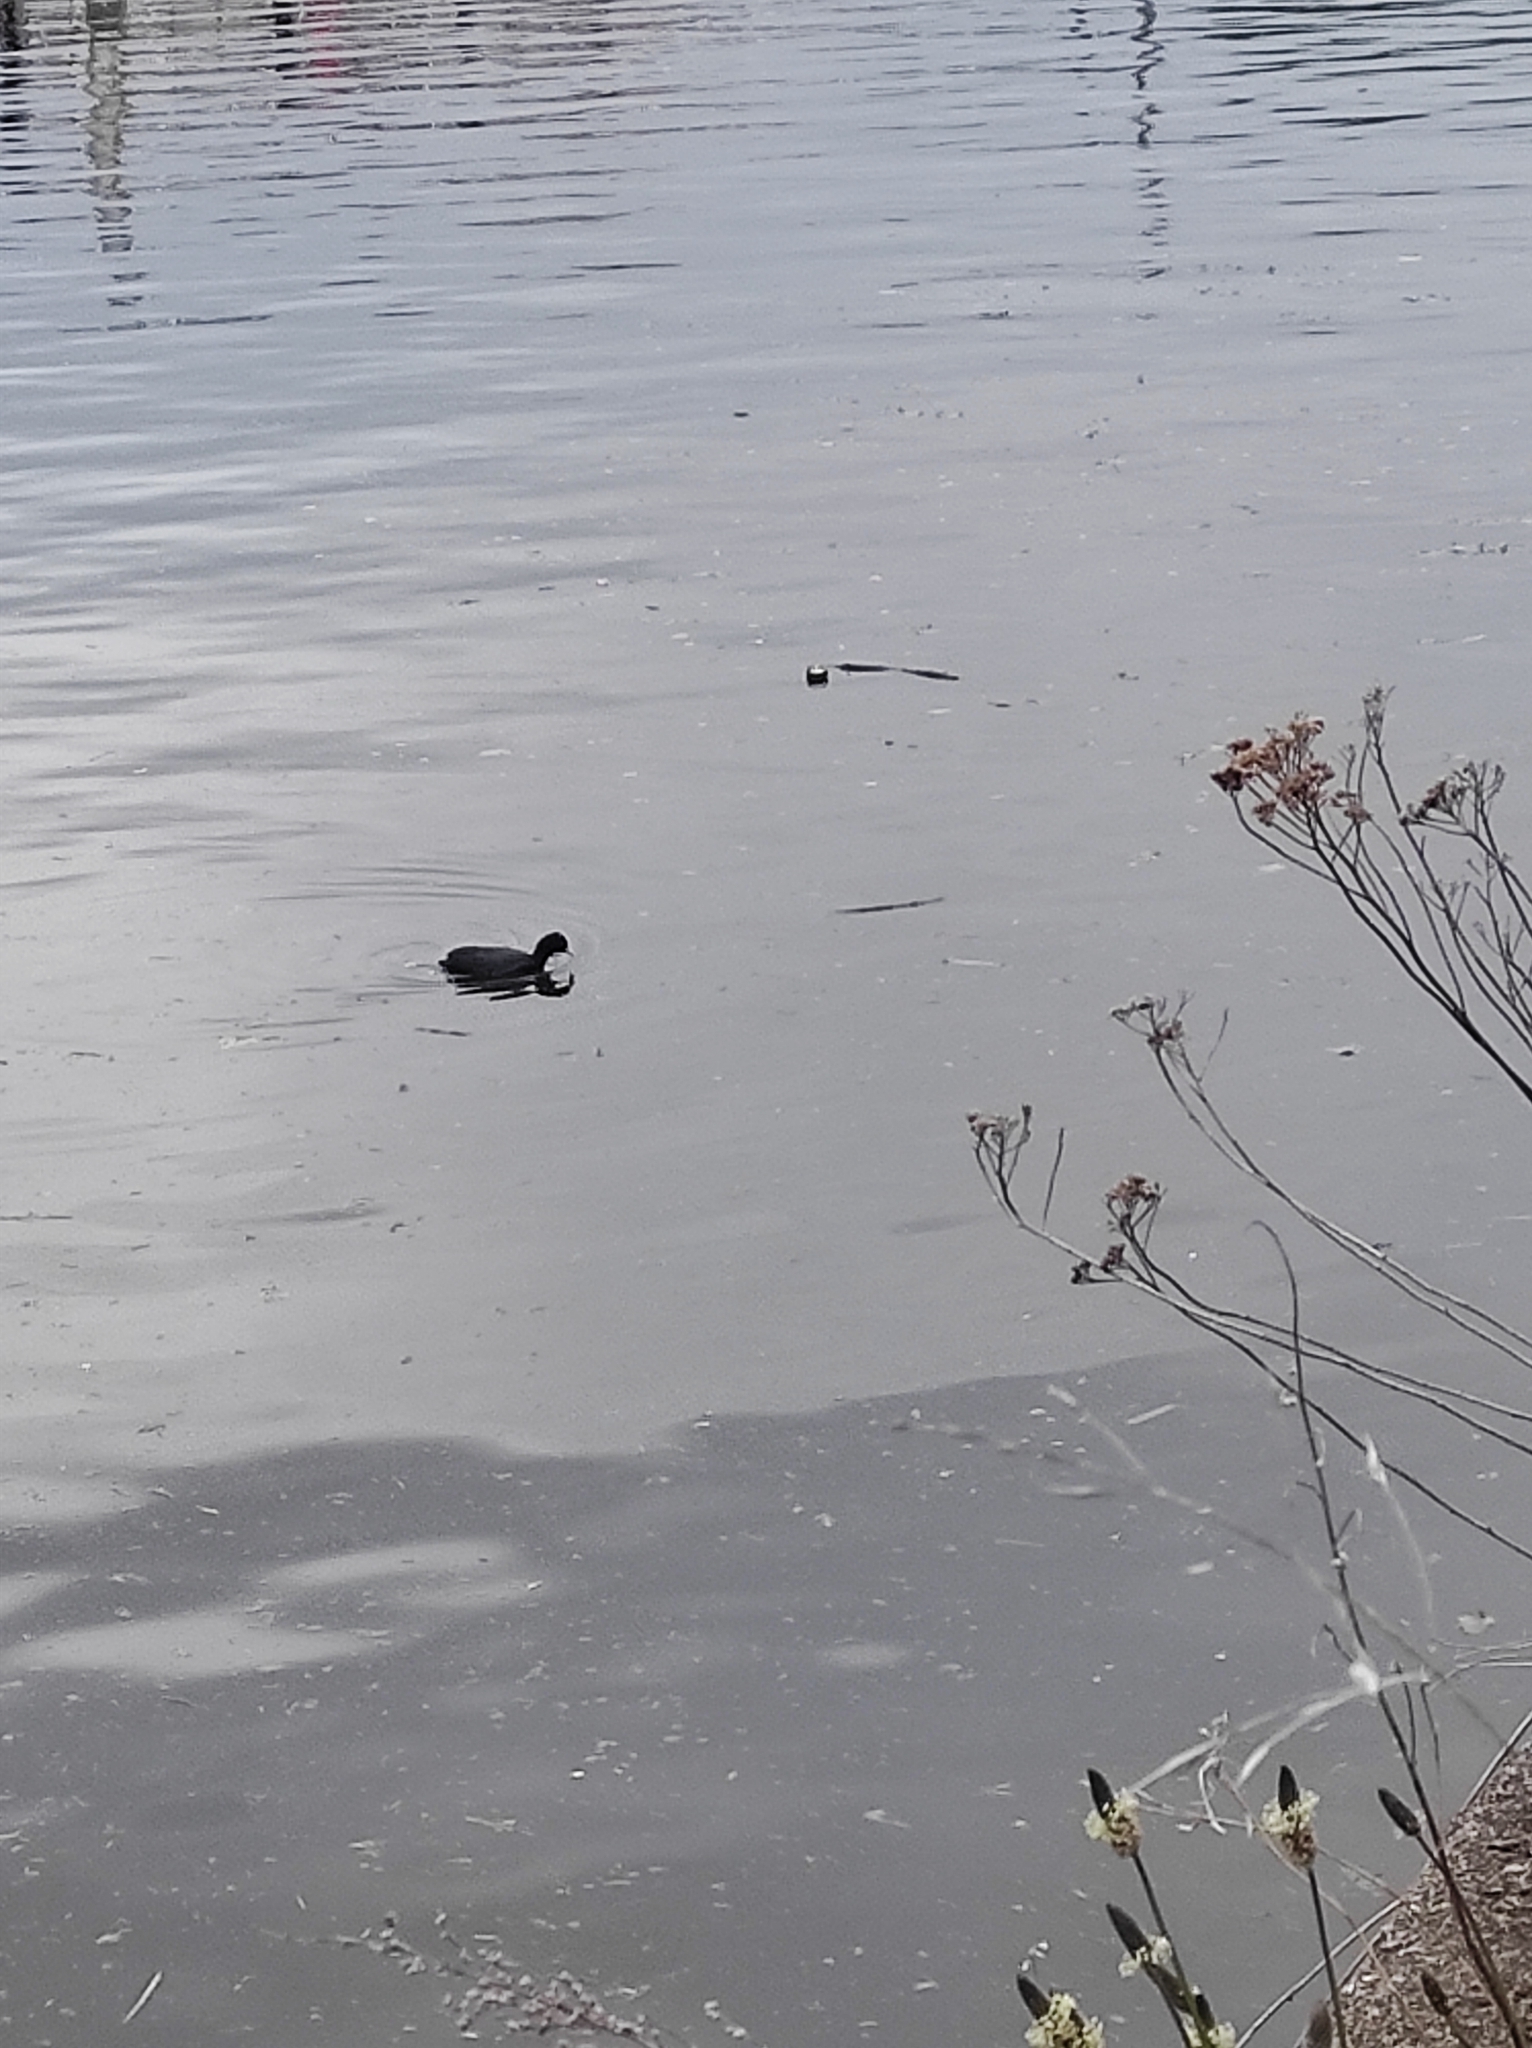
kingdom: Animalia
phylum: Chordata
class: Aves
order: Gruiformes
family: Rallidae
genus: Fulica
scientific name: Fulica atra
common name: Eurasian coot
